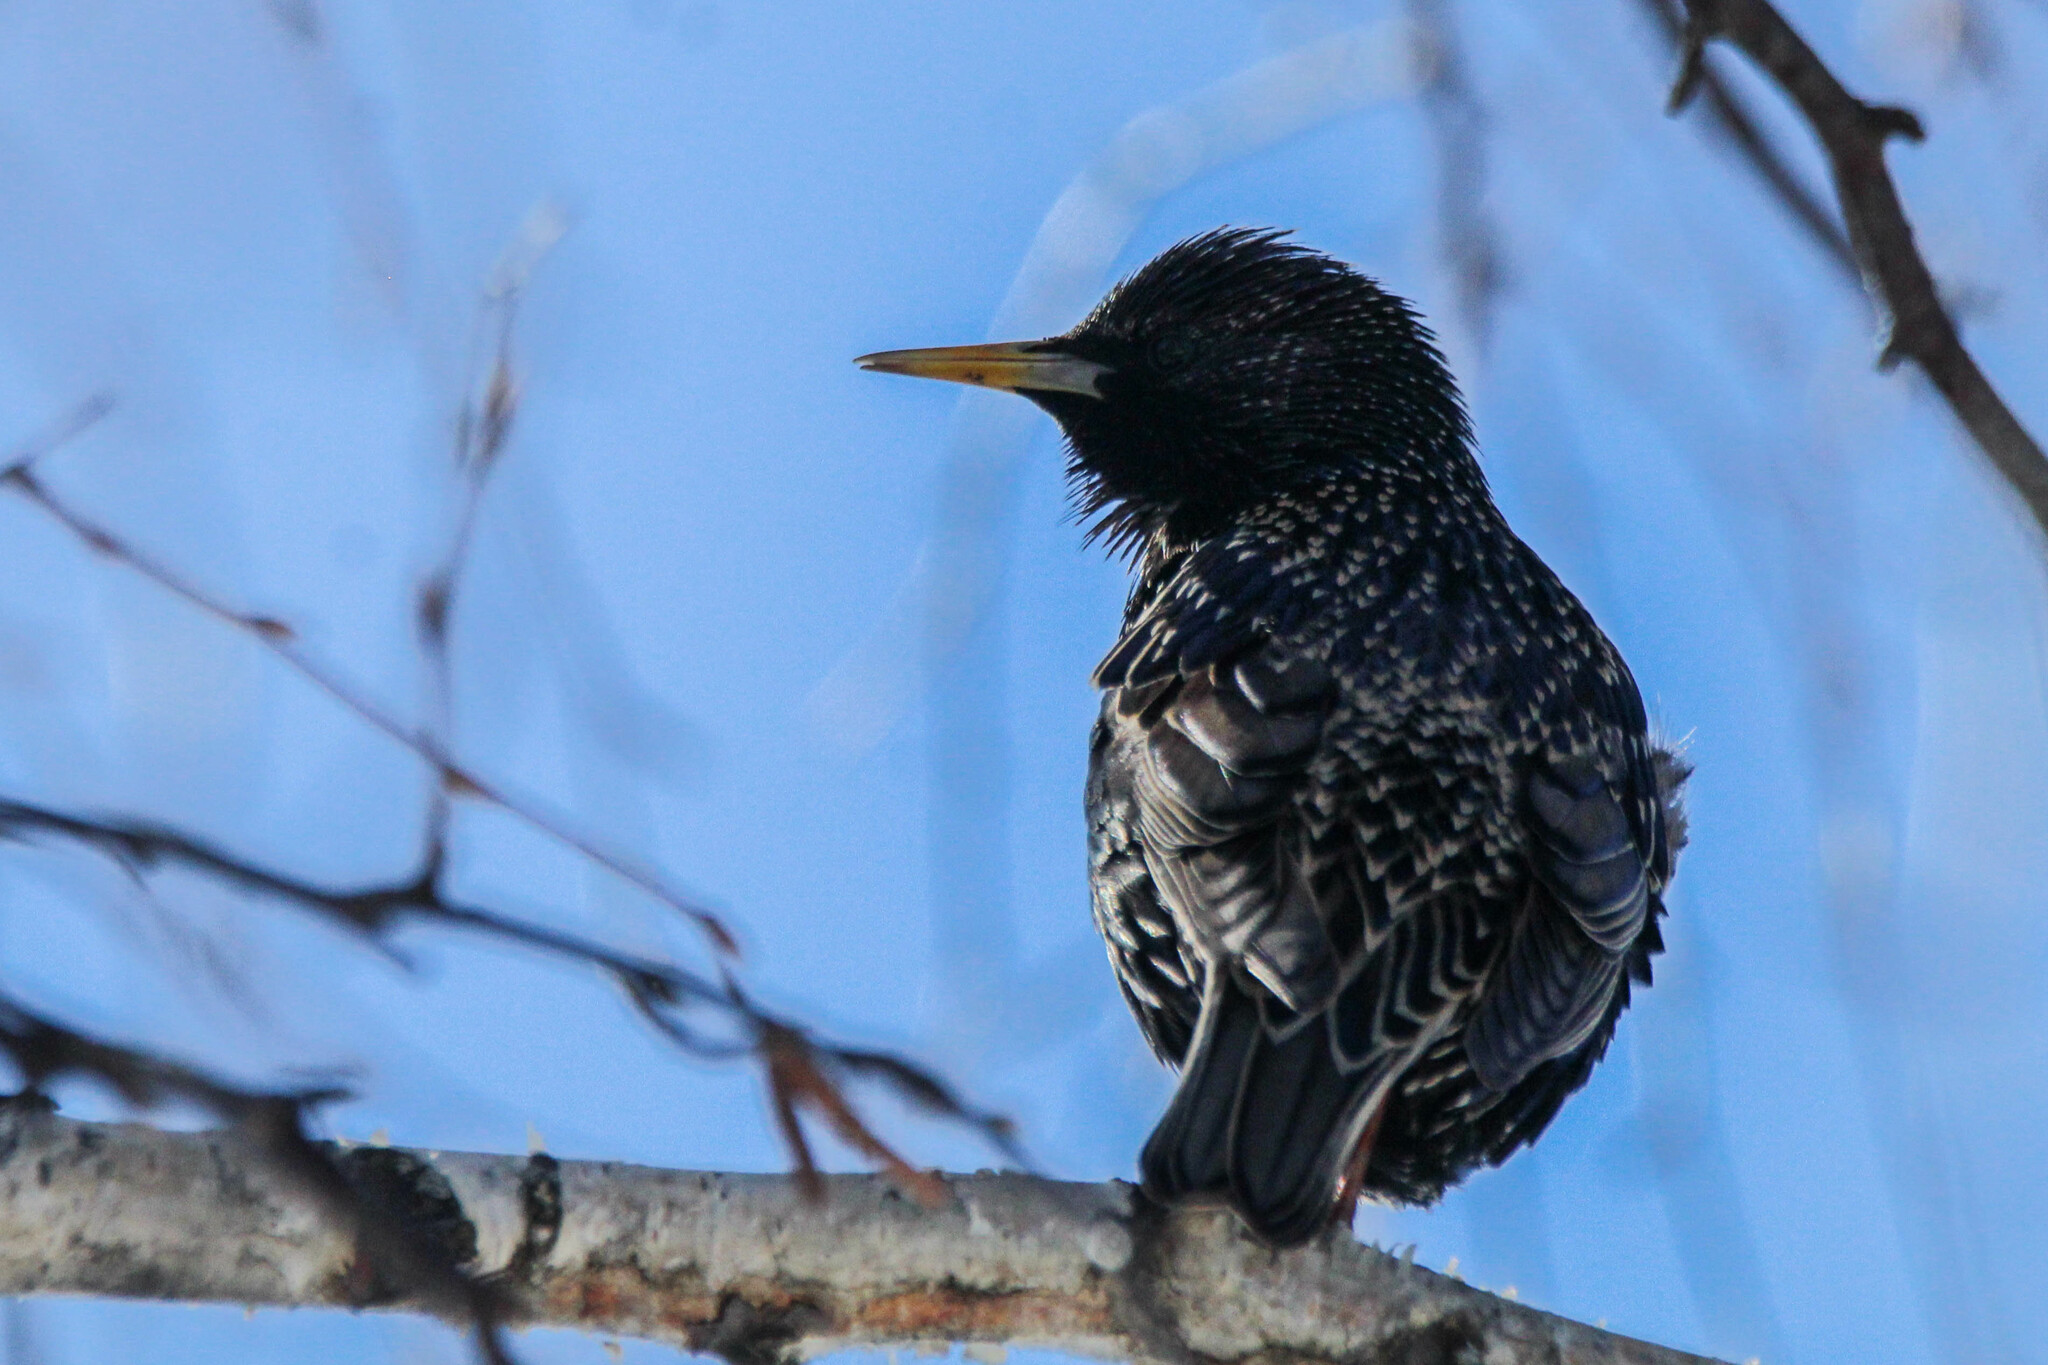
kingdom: Animalia
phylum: Chordata
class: Aves
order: Passeriformes
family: Sturnidae
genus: Sturnus
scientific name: Sturnus vulgaris
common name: Common starling
